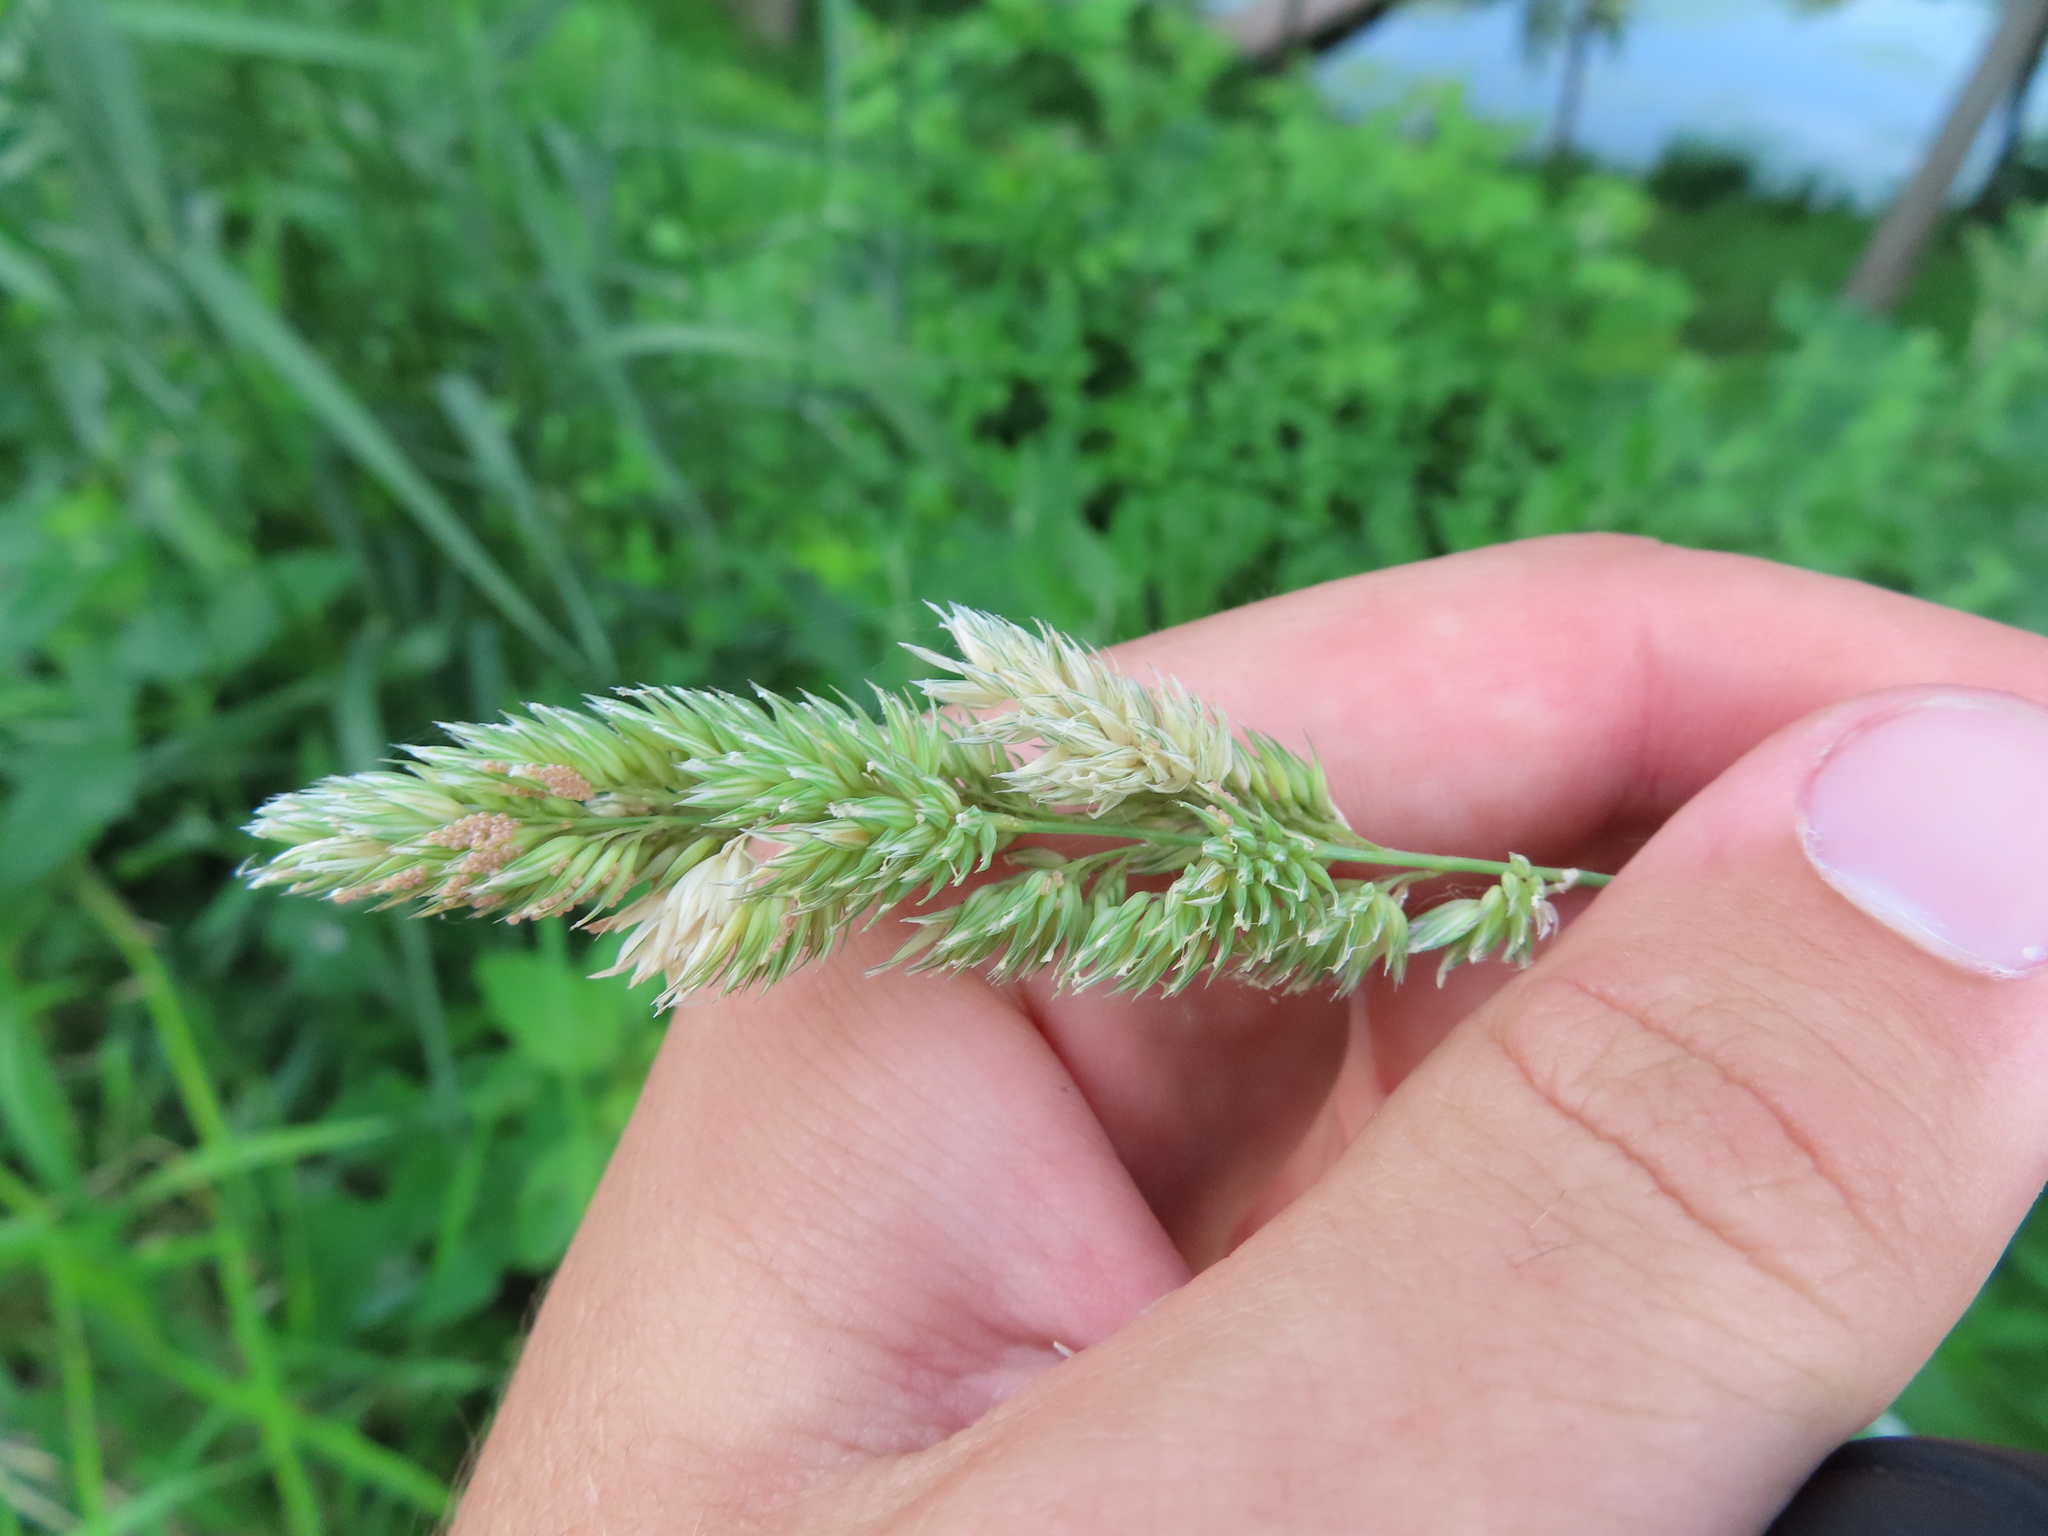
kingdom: Plantae
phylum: Tracheophyta
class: Liliopsida
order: Poales
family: Poaceae
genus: Phalaris
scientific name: Phalaris arundinacea
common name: Reed canary-grass
